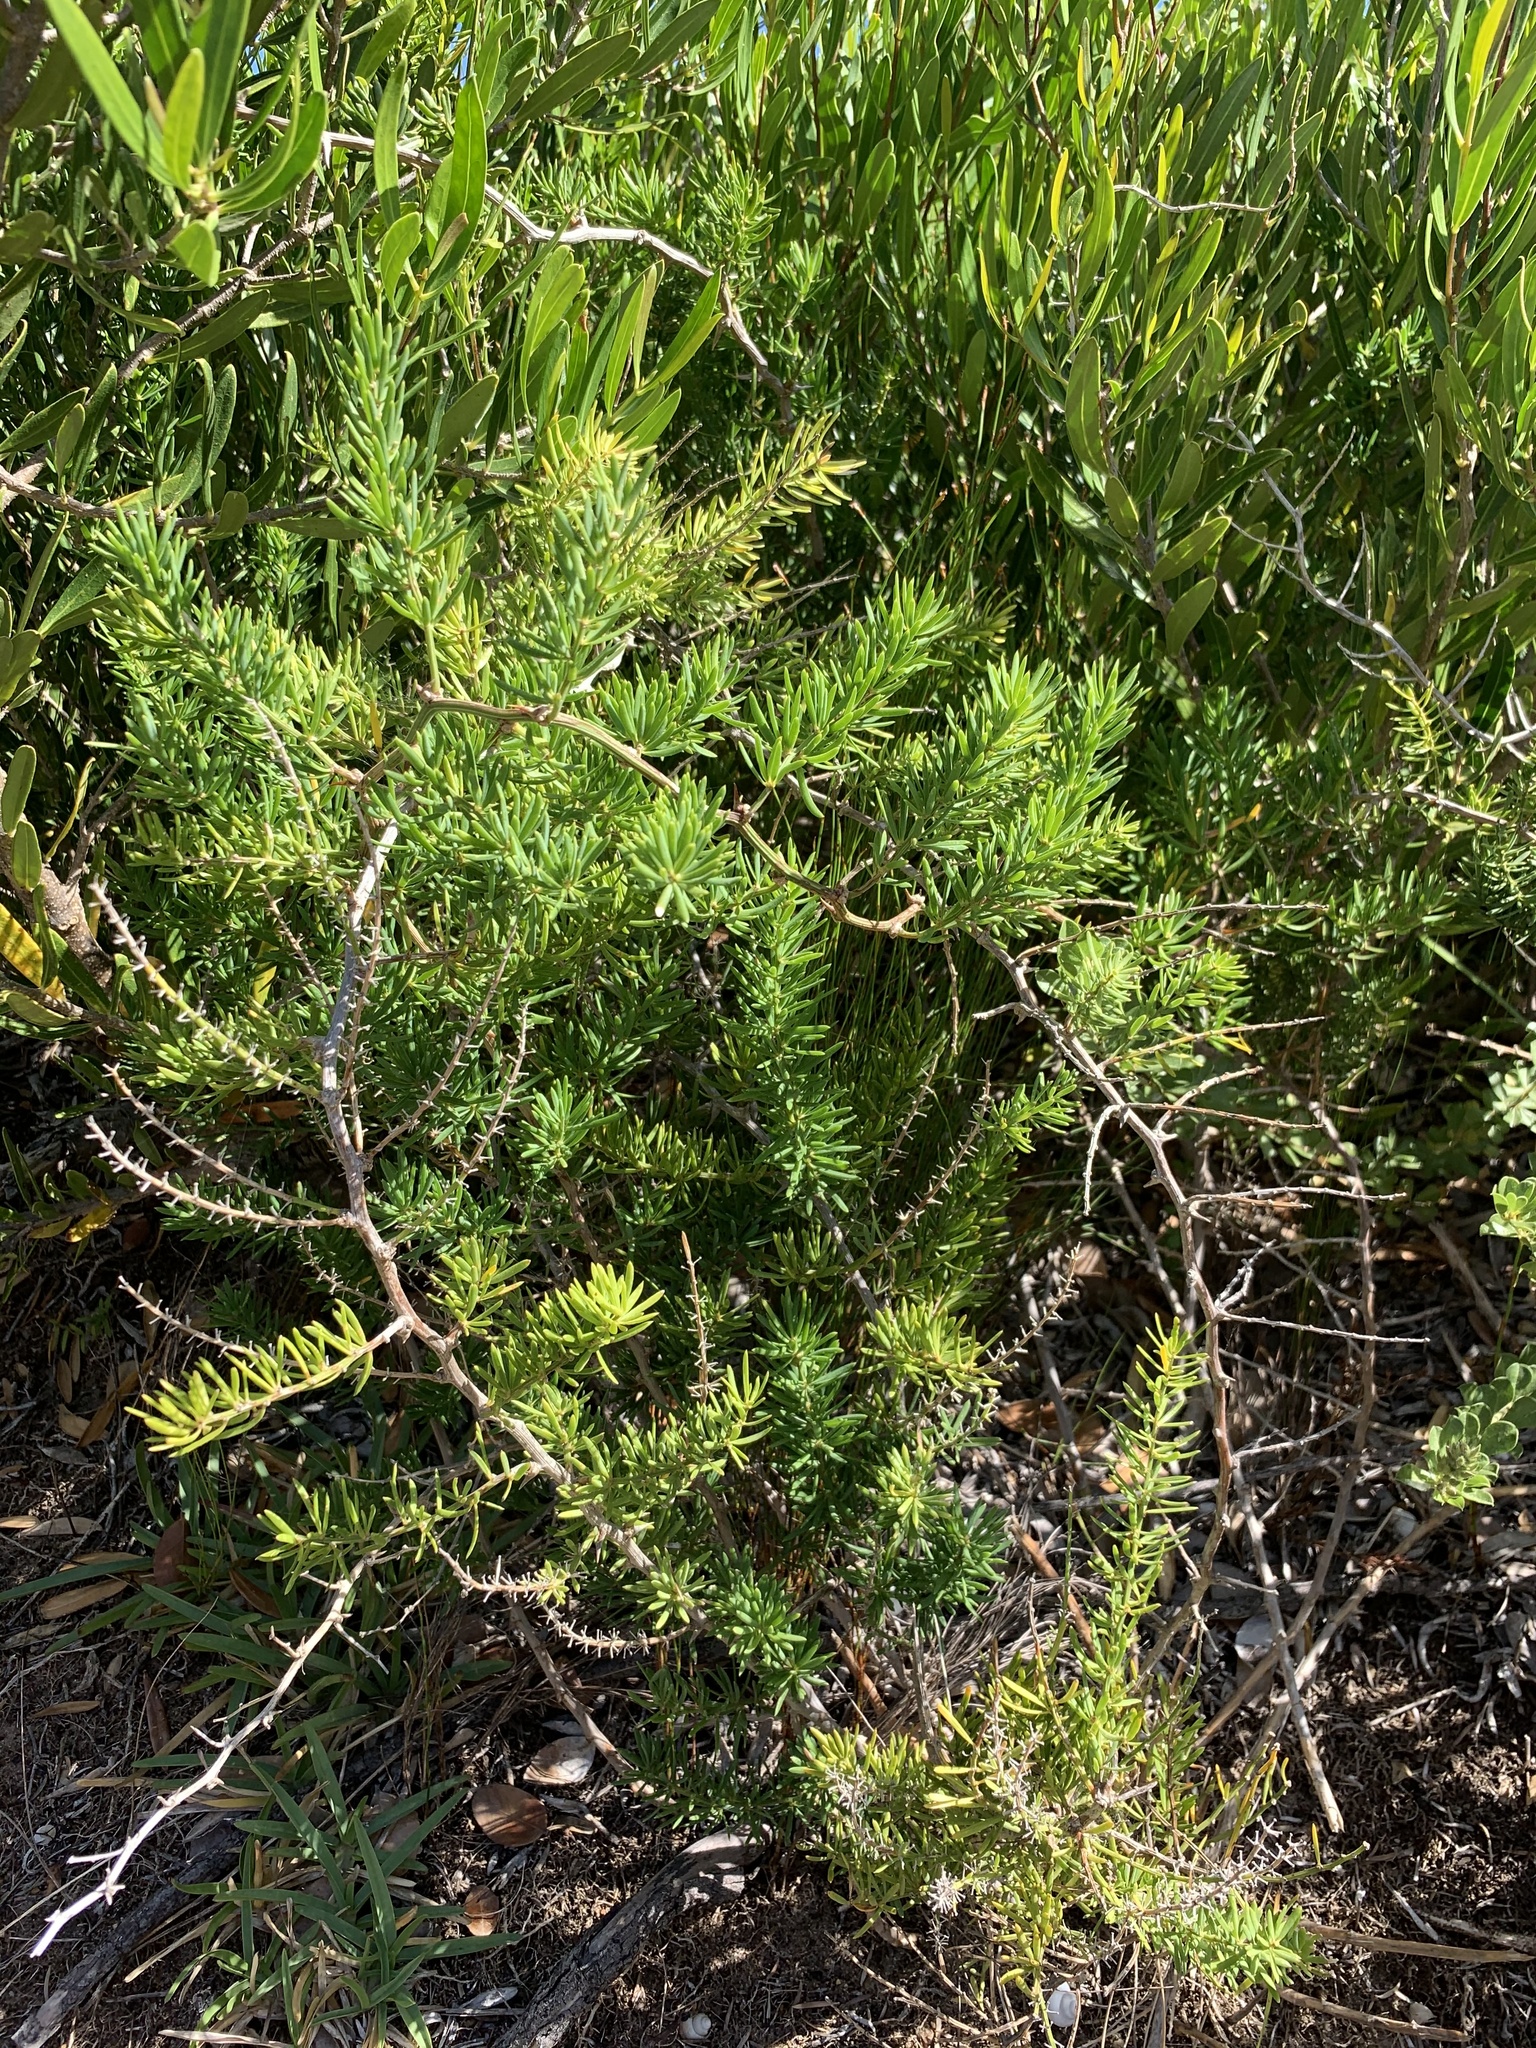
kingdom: Plantae
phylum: Tracheophyta
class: Liliopsida
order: Asparagales
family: Asparagaceae
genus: Asparagus
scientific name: Asparagus aethiopicus
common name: Sprenger's asparagus fern
